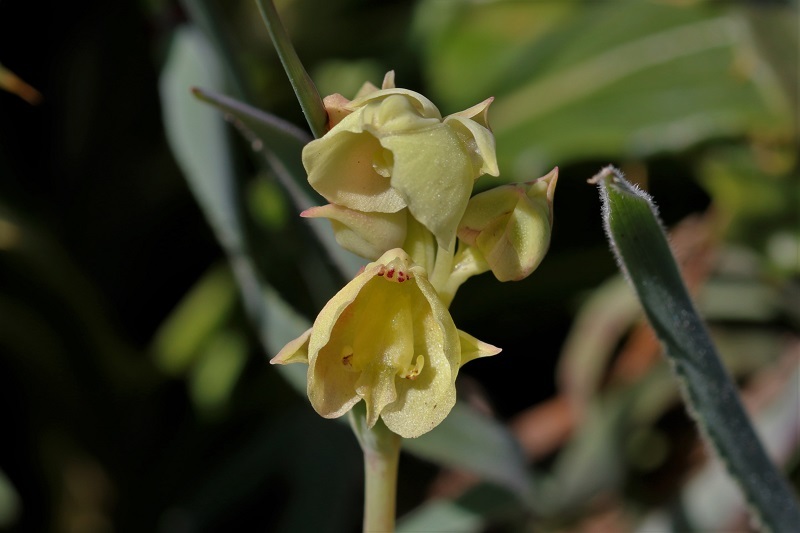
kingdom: Plantae
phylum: Tracheophyta
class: Liliopsida
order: Asparagales
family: Orchidaceae
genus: Pterygodium
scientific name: Pterygodium catholicum
